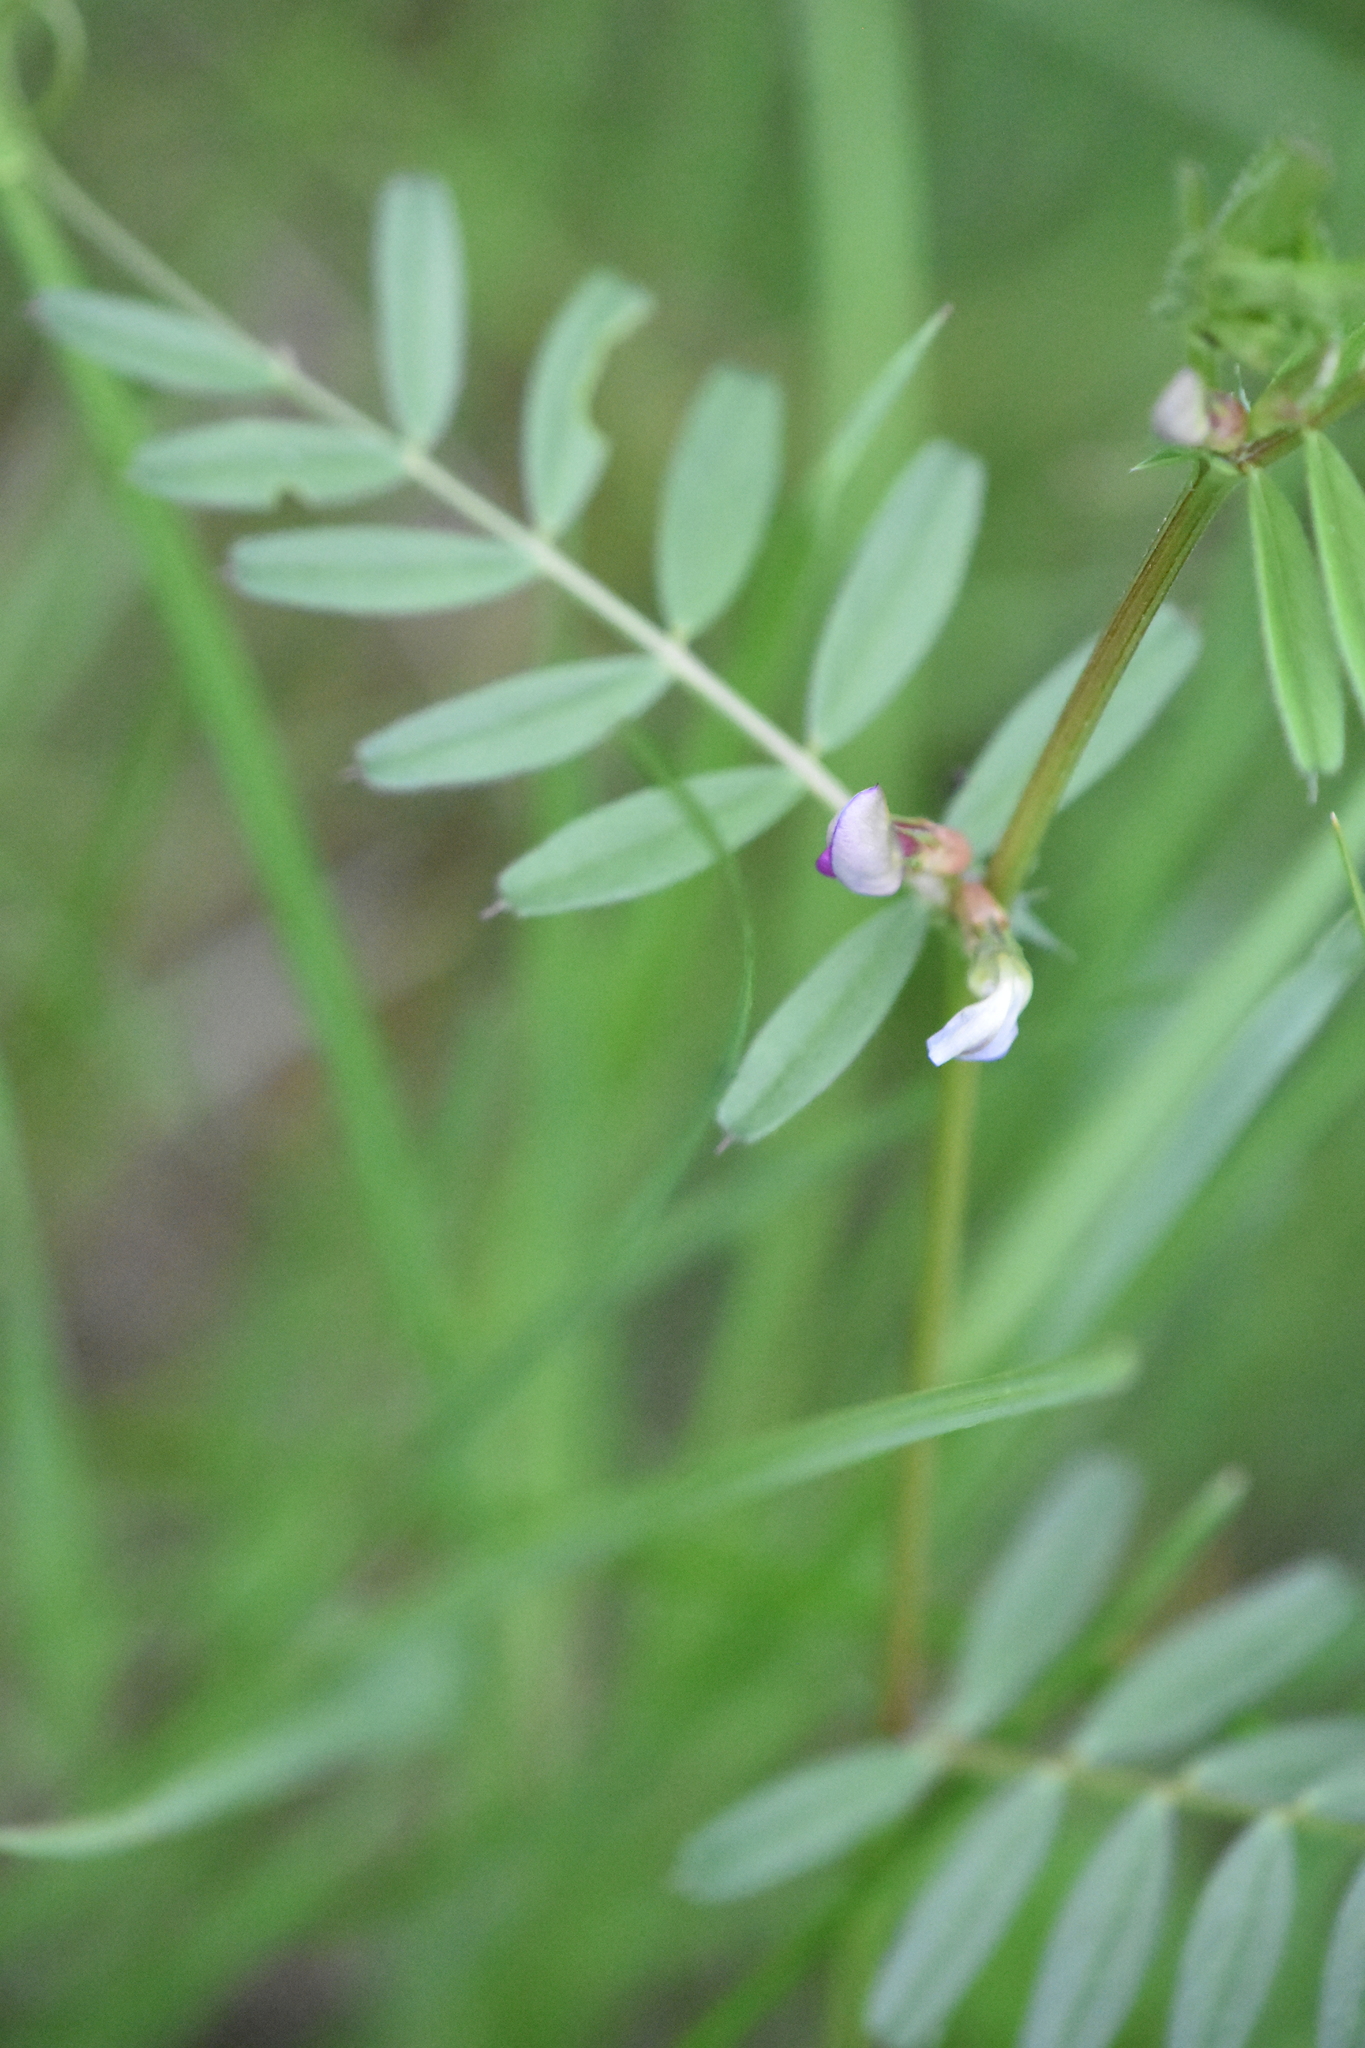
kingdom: Plantae
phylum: Tracheophyta
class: Magnoliopsida
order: Fabales
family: Fabaceae
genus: Vicia
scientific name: Vicia sativa
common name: Garden vetch
